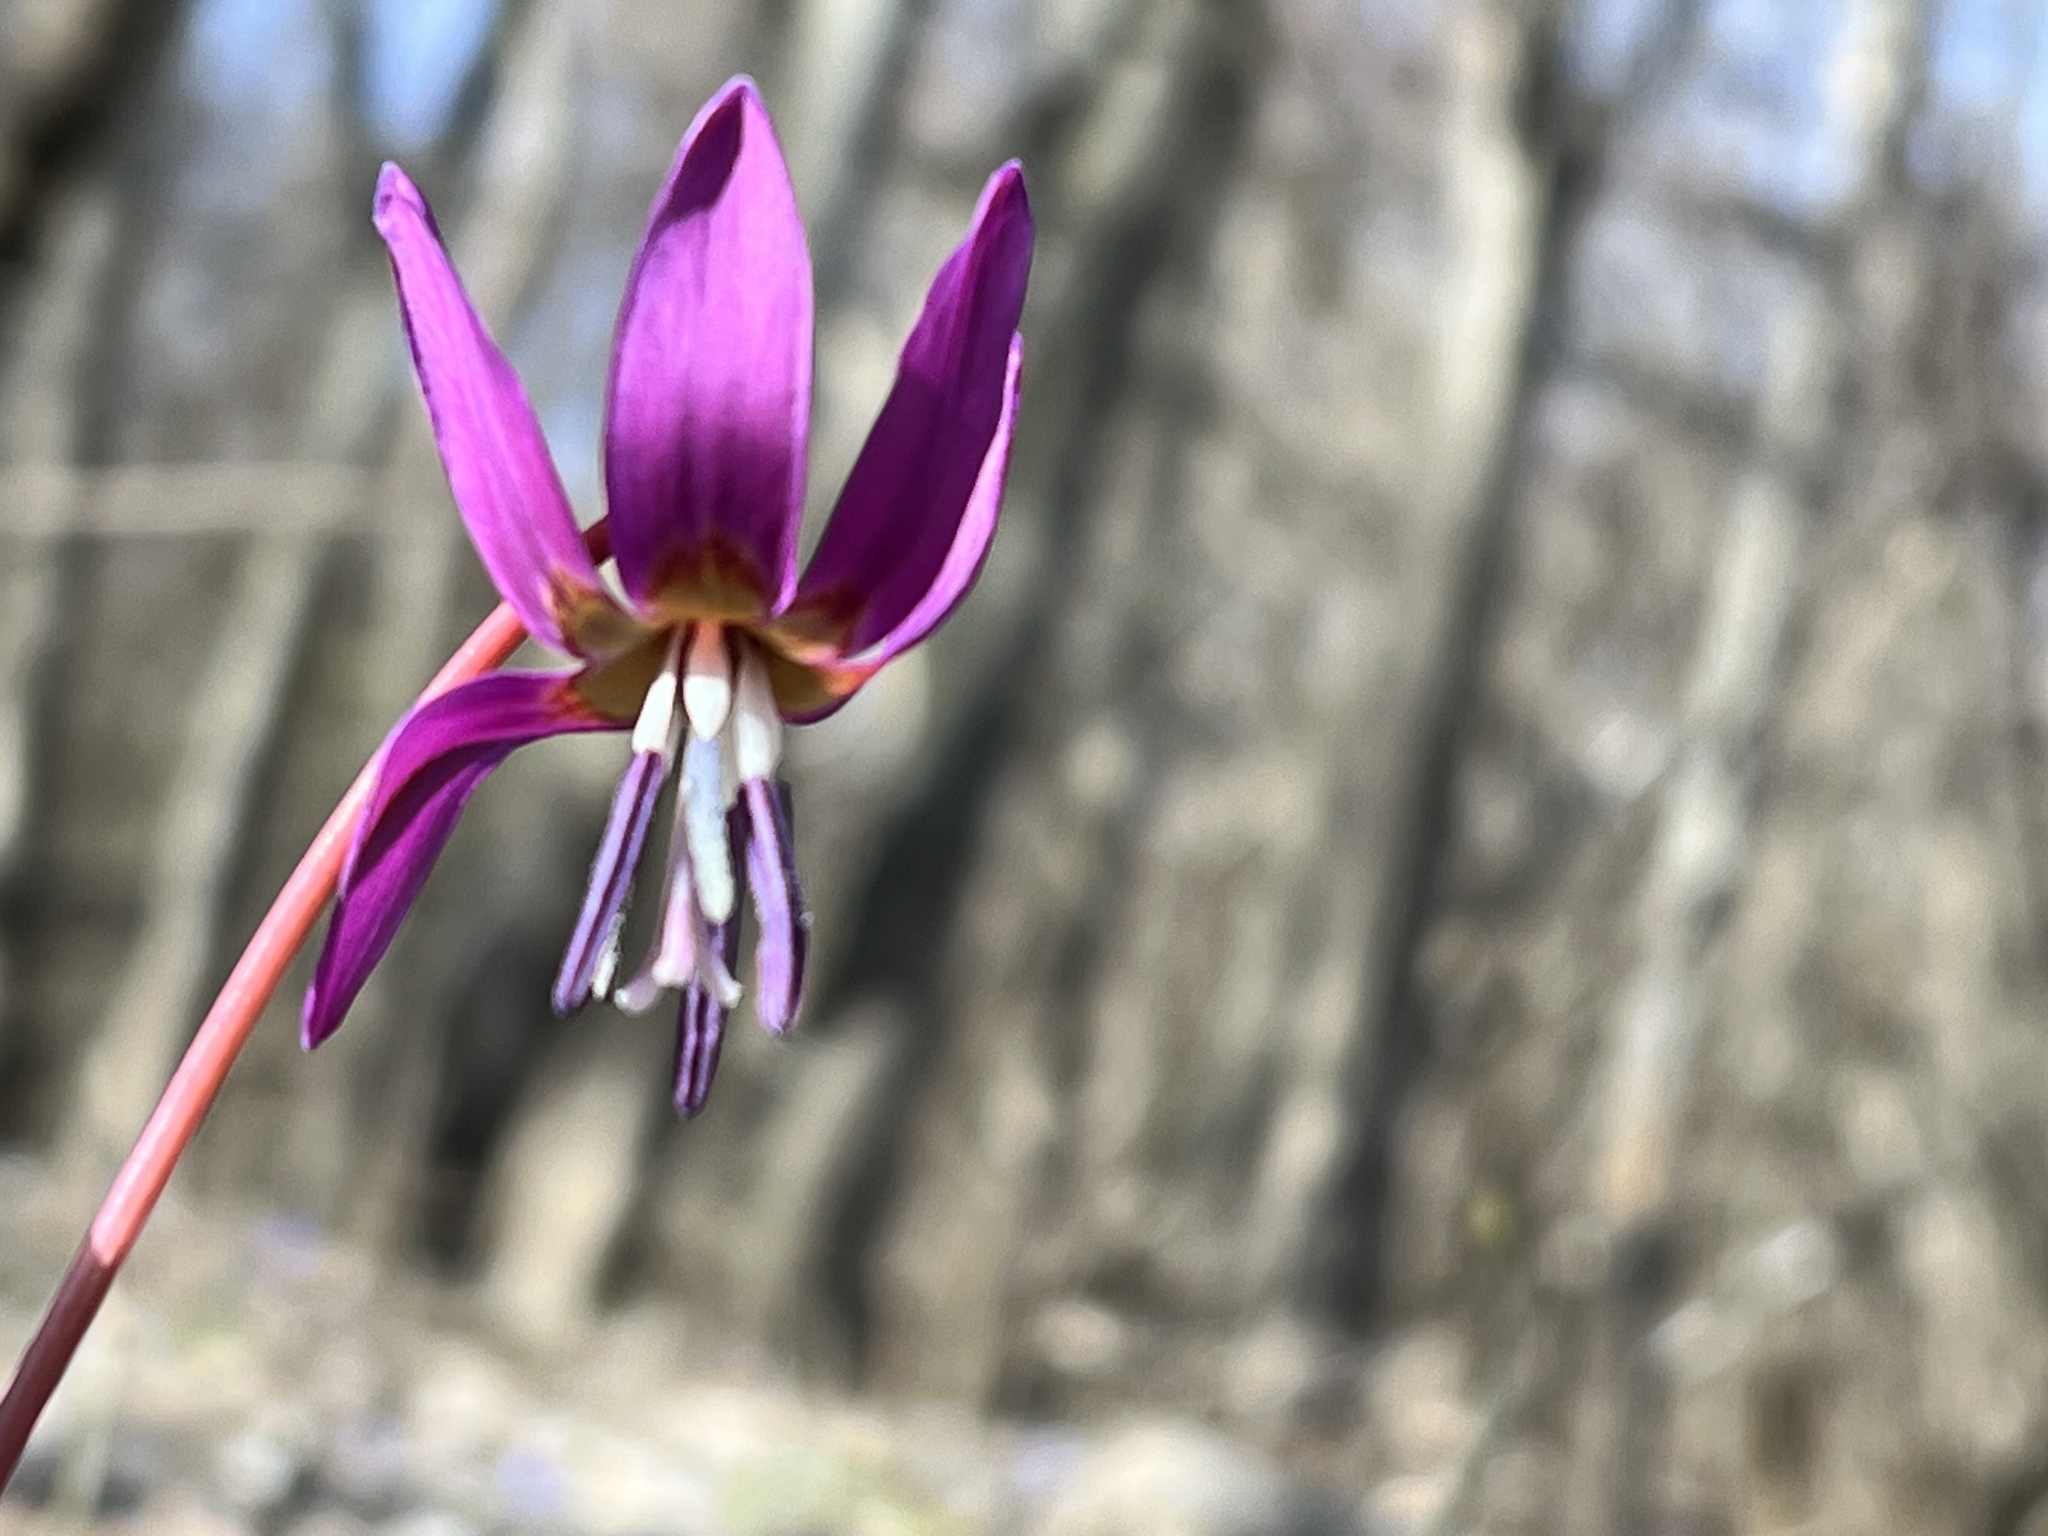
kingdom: Plantae
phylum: Tracheophyta
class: Liliopsida
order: Liliales
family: Liliaceae
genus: Erythronium
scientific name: Erythronium dens-canis
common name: Dog's-tooth-violet
